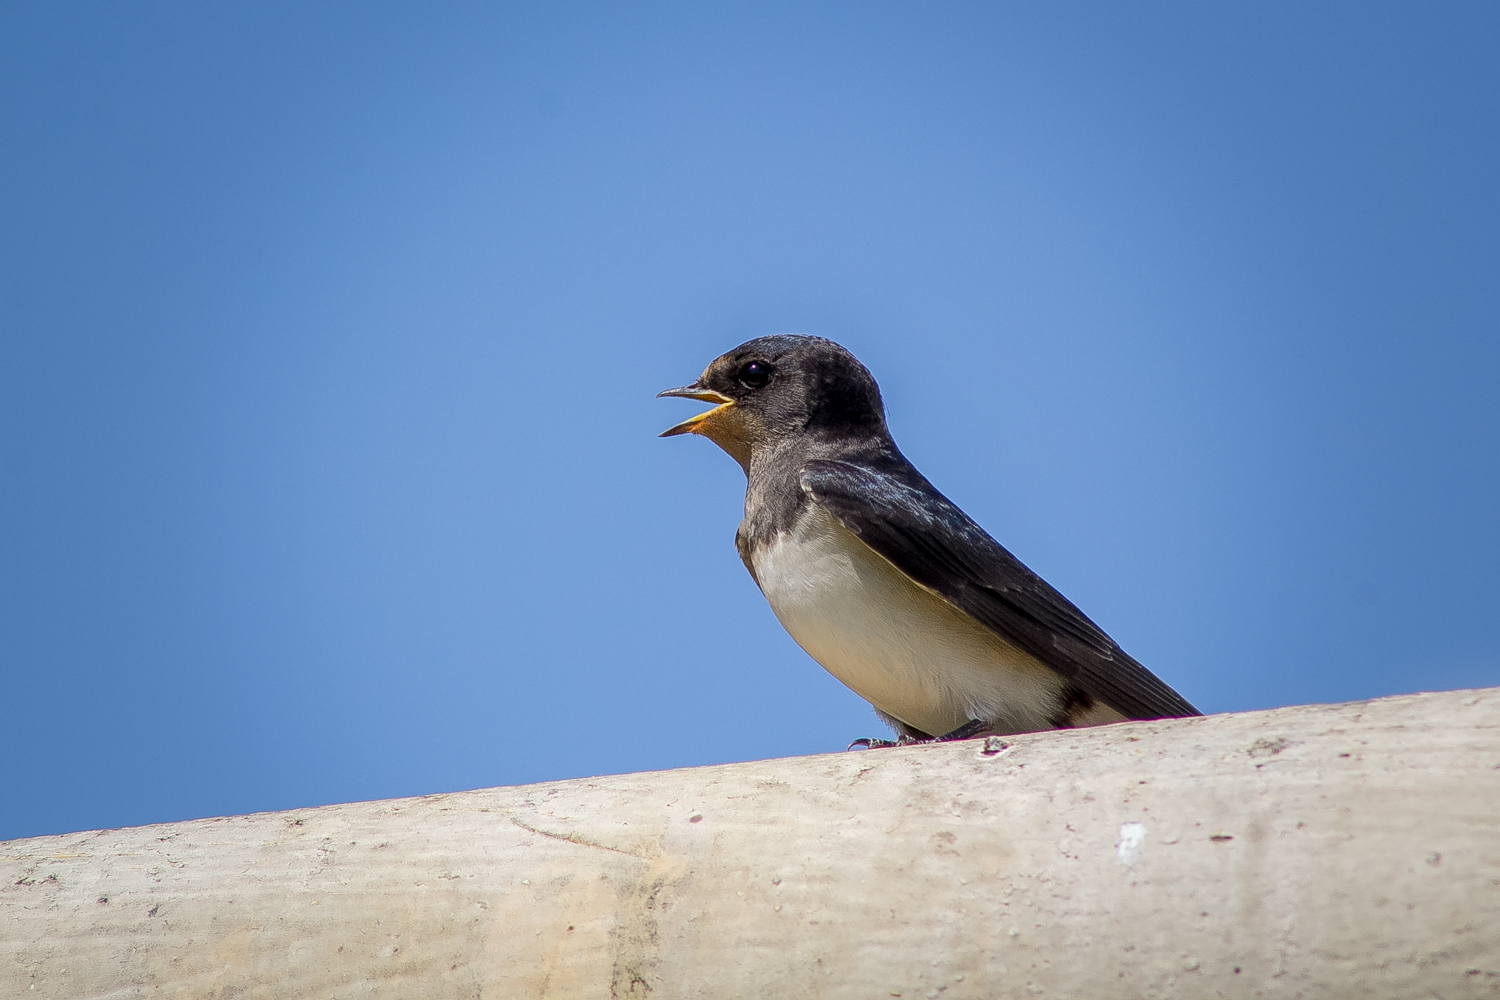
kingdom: Animalia
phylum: Chordata
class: Aves
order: Passeriformes
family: Hirundinidae
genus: Hirundo
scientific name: Hirundo rustica
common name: Barn swallow
